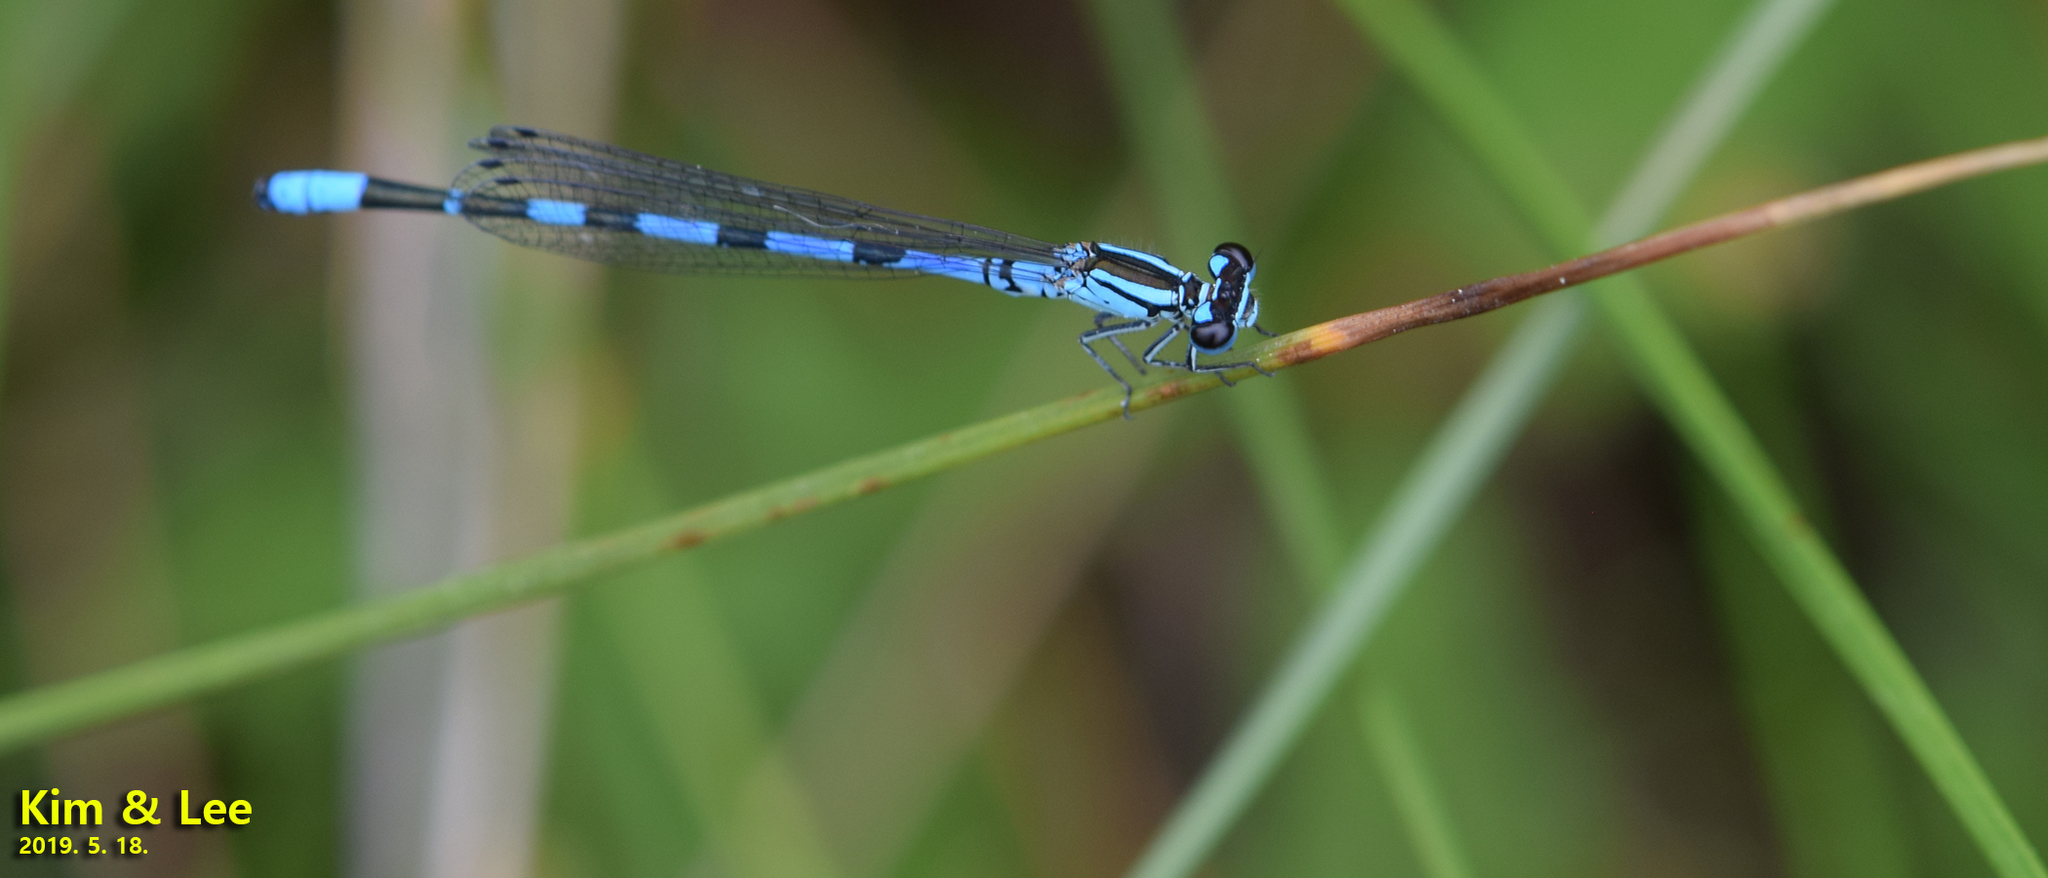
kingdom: Animalia
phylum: Arthropoda
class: Insecta
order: Odonata
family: Coenagrionidae
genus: Coenagrion
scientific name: Coenagrion johanssoni
